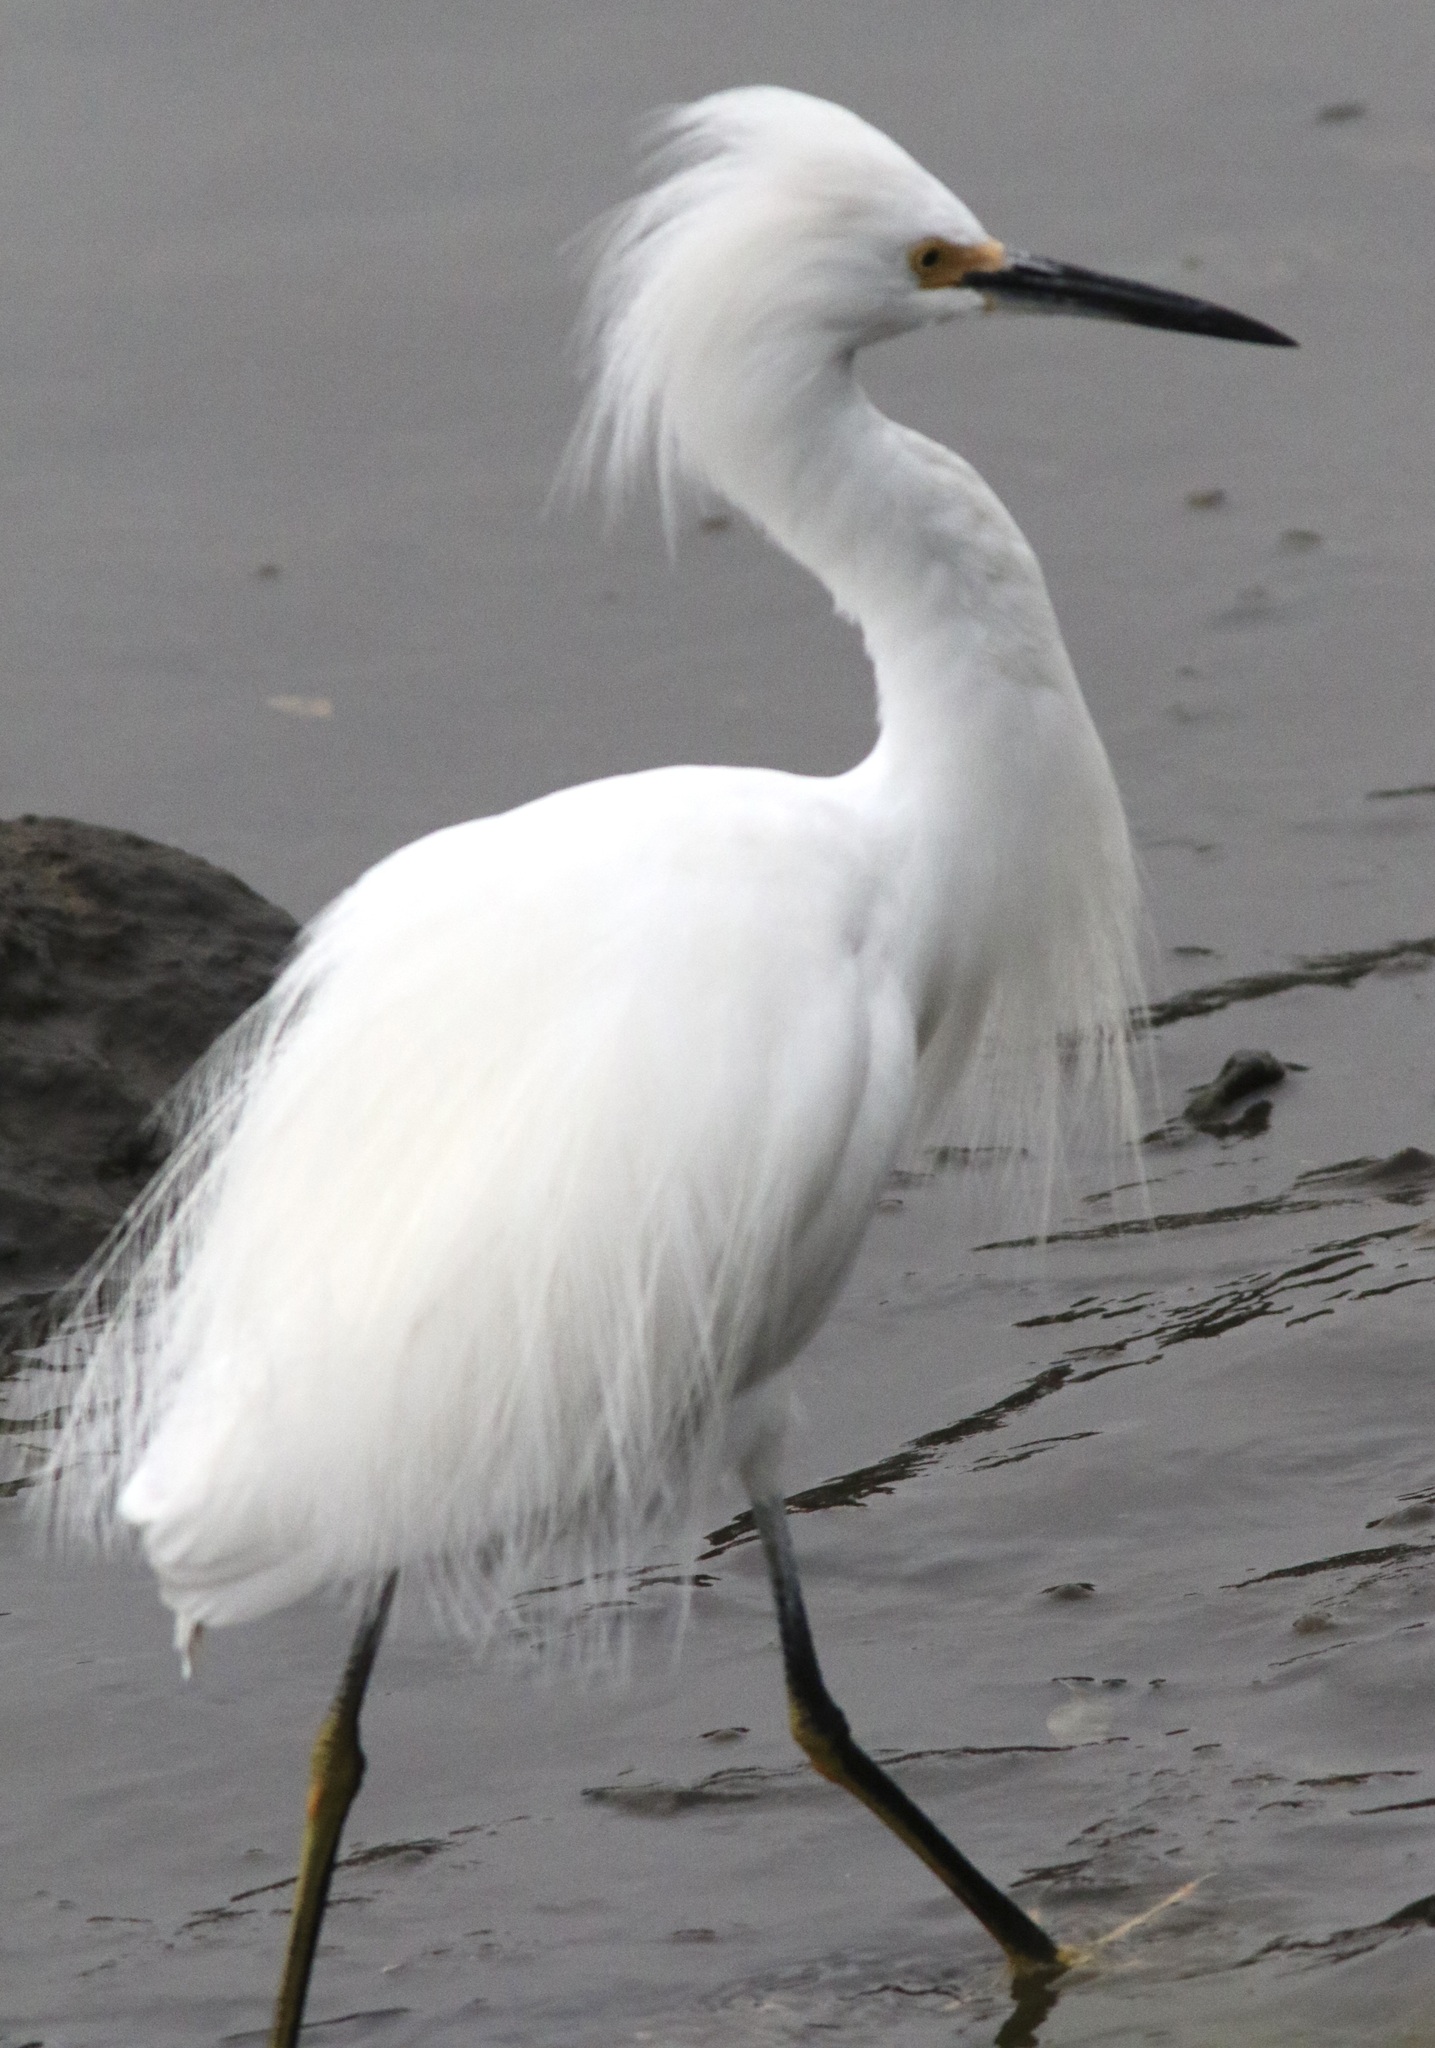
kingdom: Animalia
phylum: Chordata
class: Aves
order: Pelecaniformes
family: Ardeidae
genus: Egretta
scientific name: Egretta thula
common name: Snowy egret
